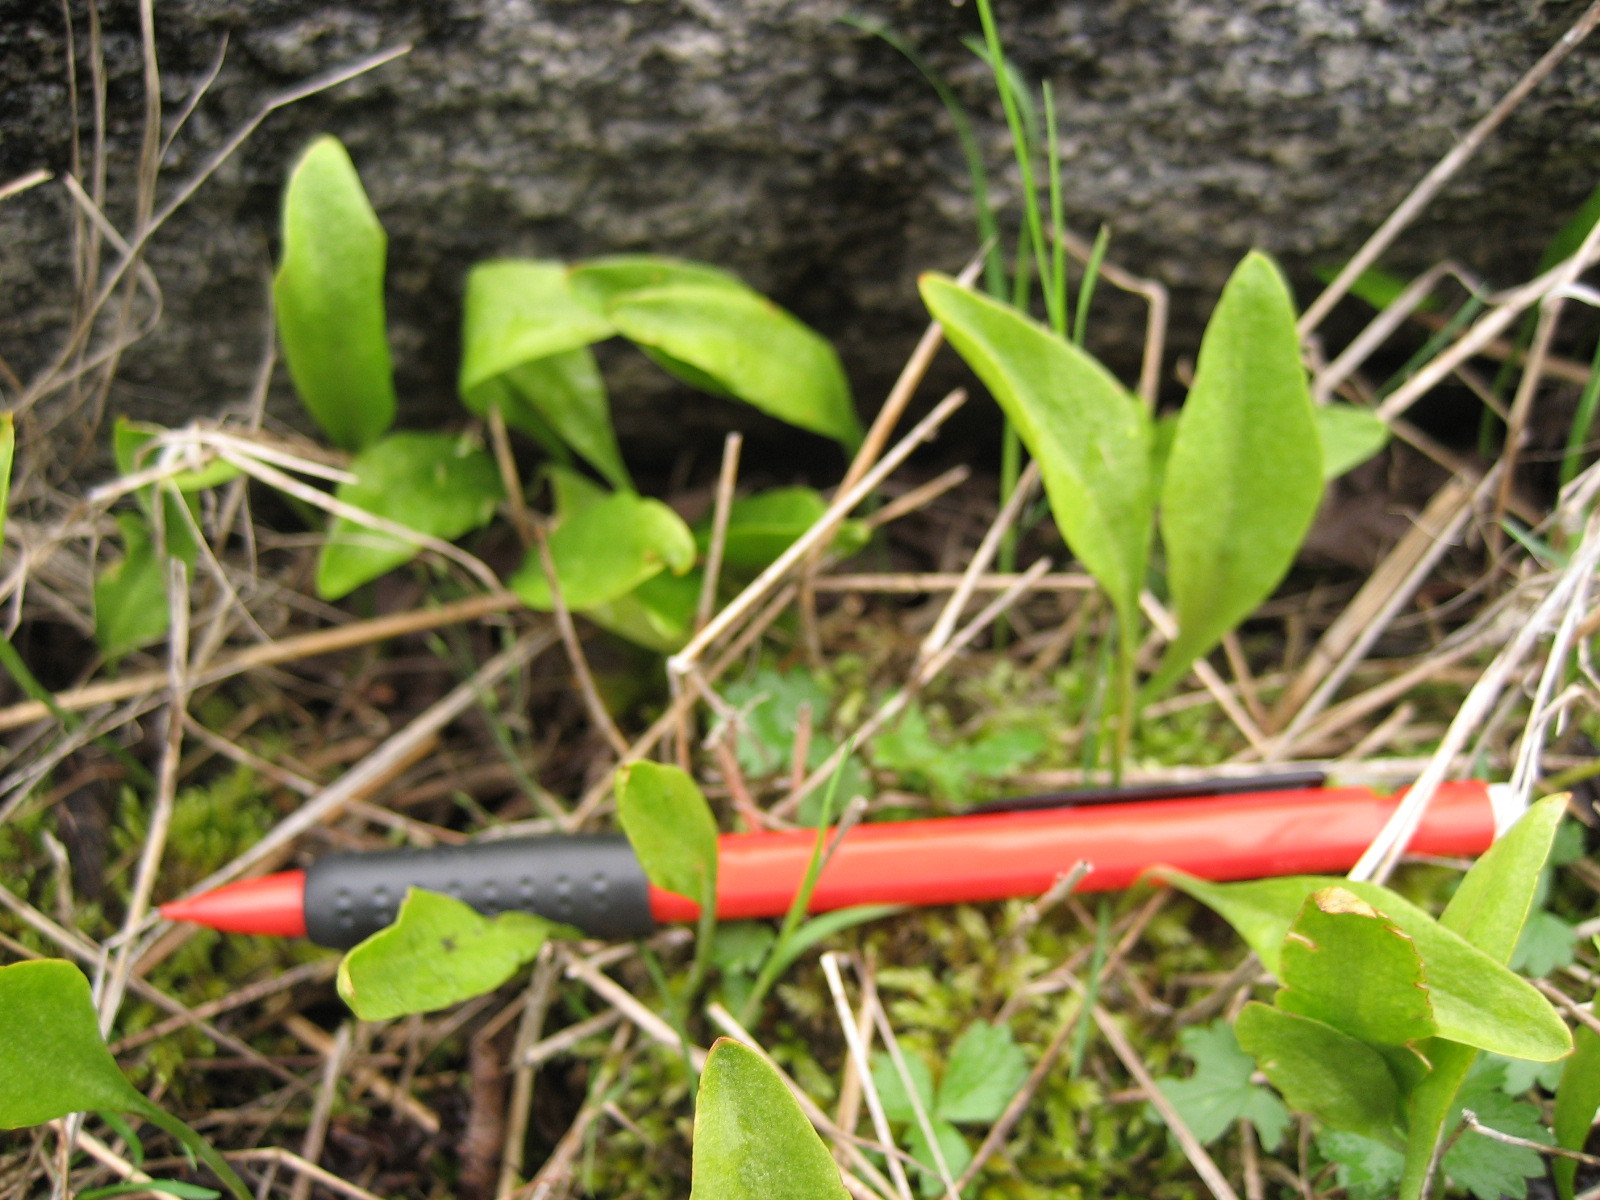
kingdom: Plantae
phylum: Tracheophyta
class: Polypodiopsida
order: Ophioglossales
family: Ophioglossaceae
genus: Ophioglossum
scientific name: Ophioglossum pusillum
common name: Northern adder's-tongue
